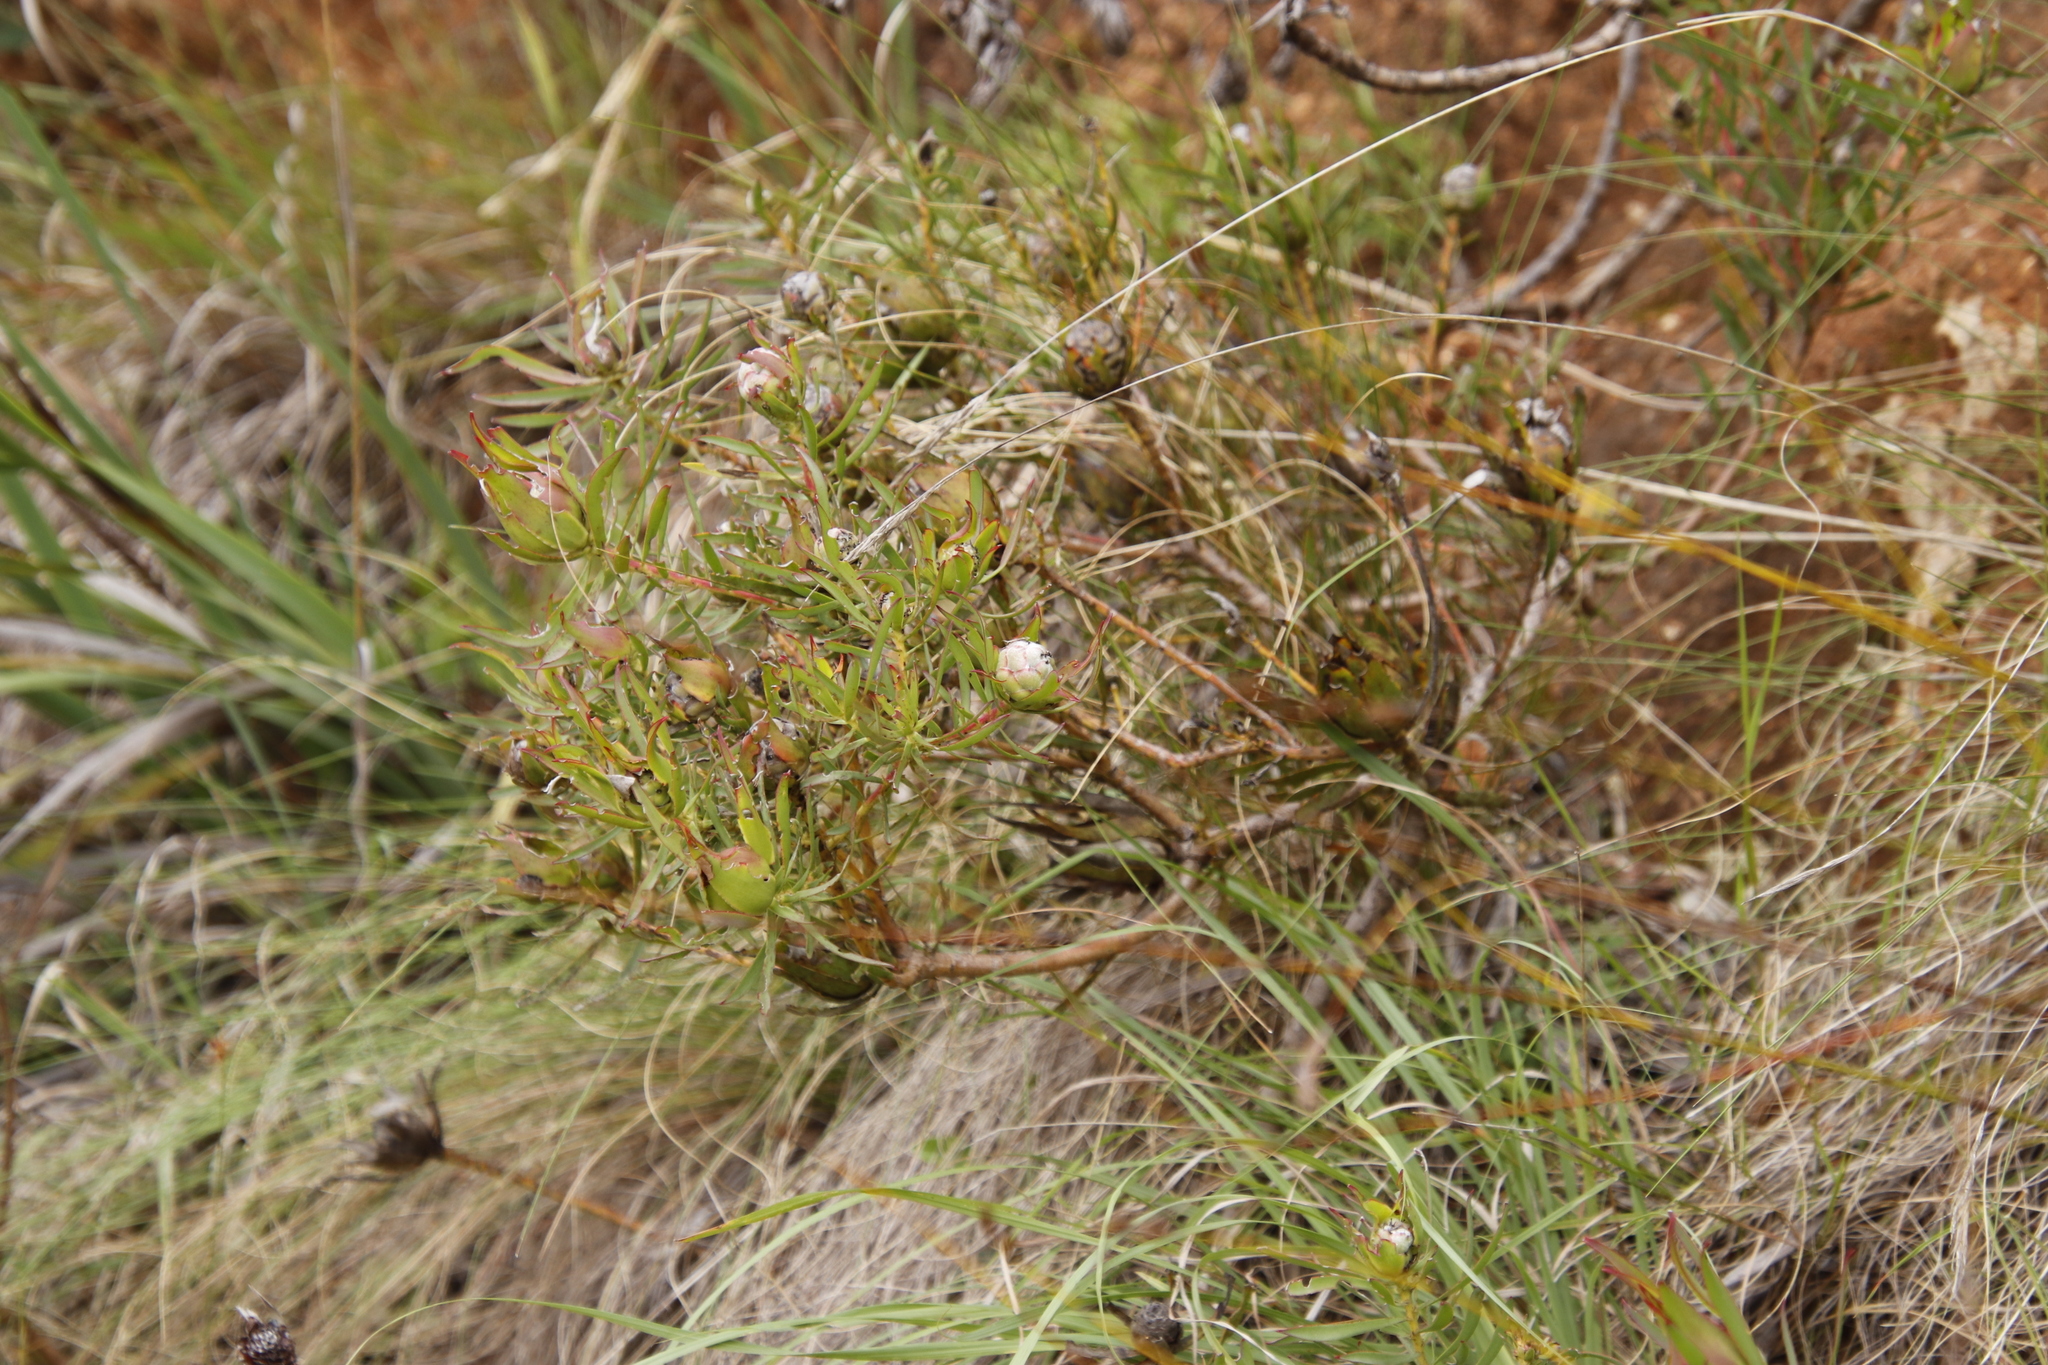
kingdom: Plantae
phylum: Tracheophyta
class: Magnoliopsida
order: Proteales
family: Proteaceae
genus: Leucadendron
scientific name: Leucadendron salignum
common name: Common sunshine conebush
